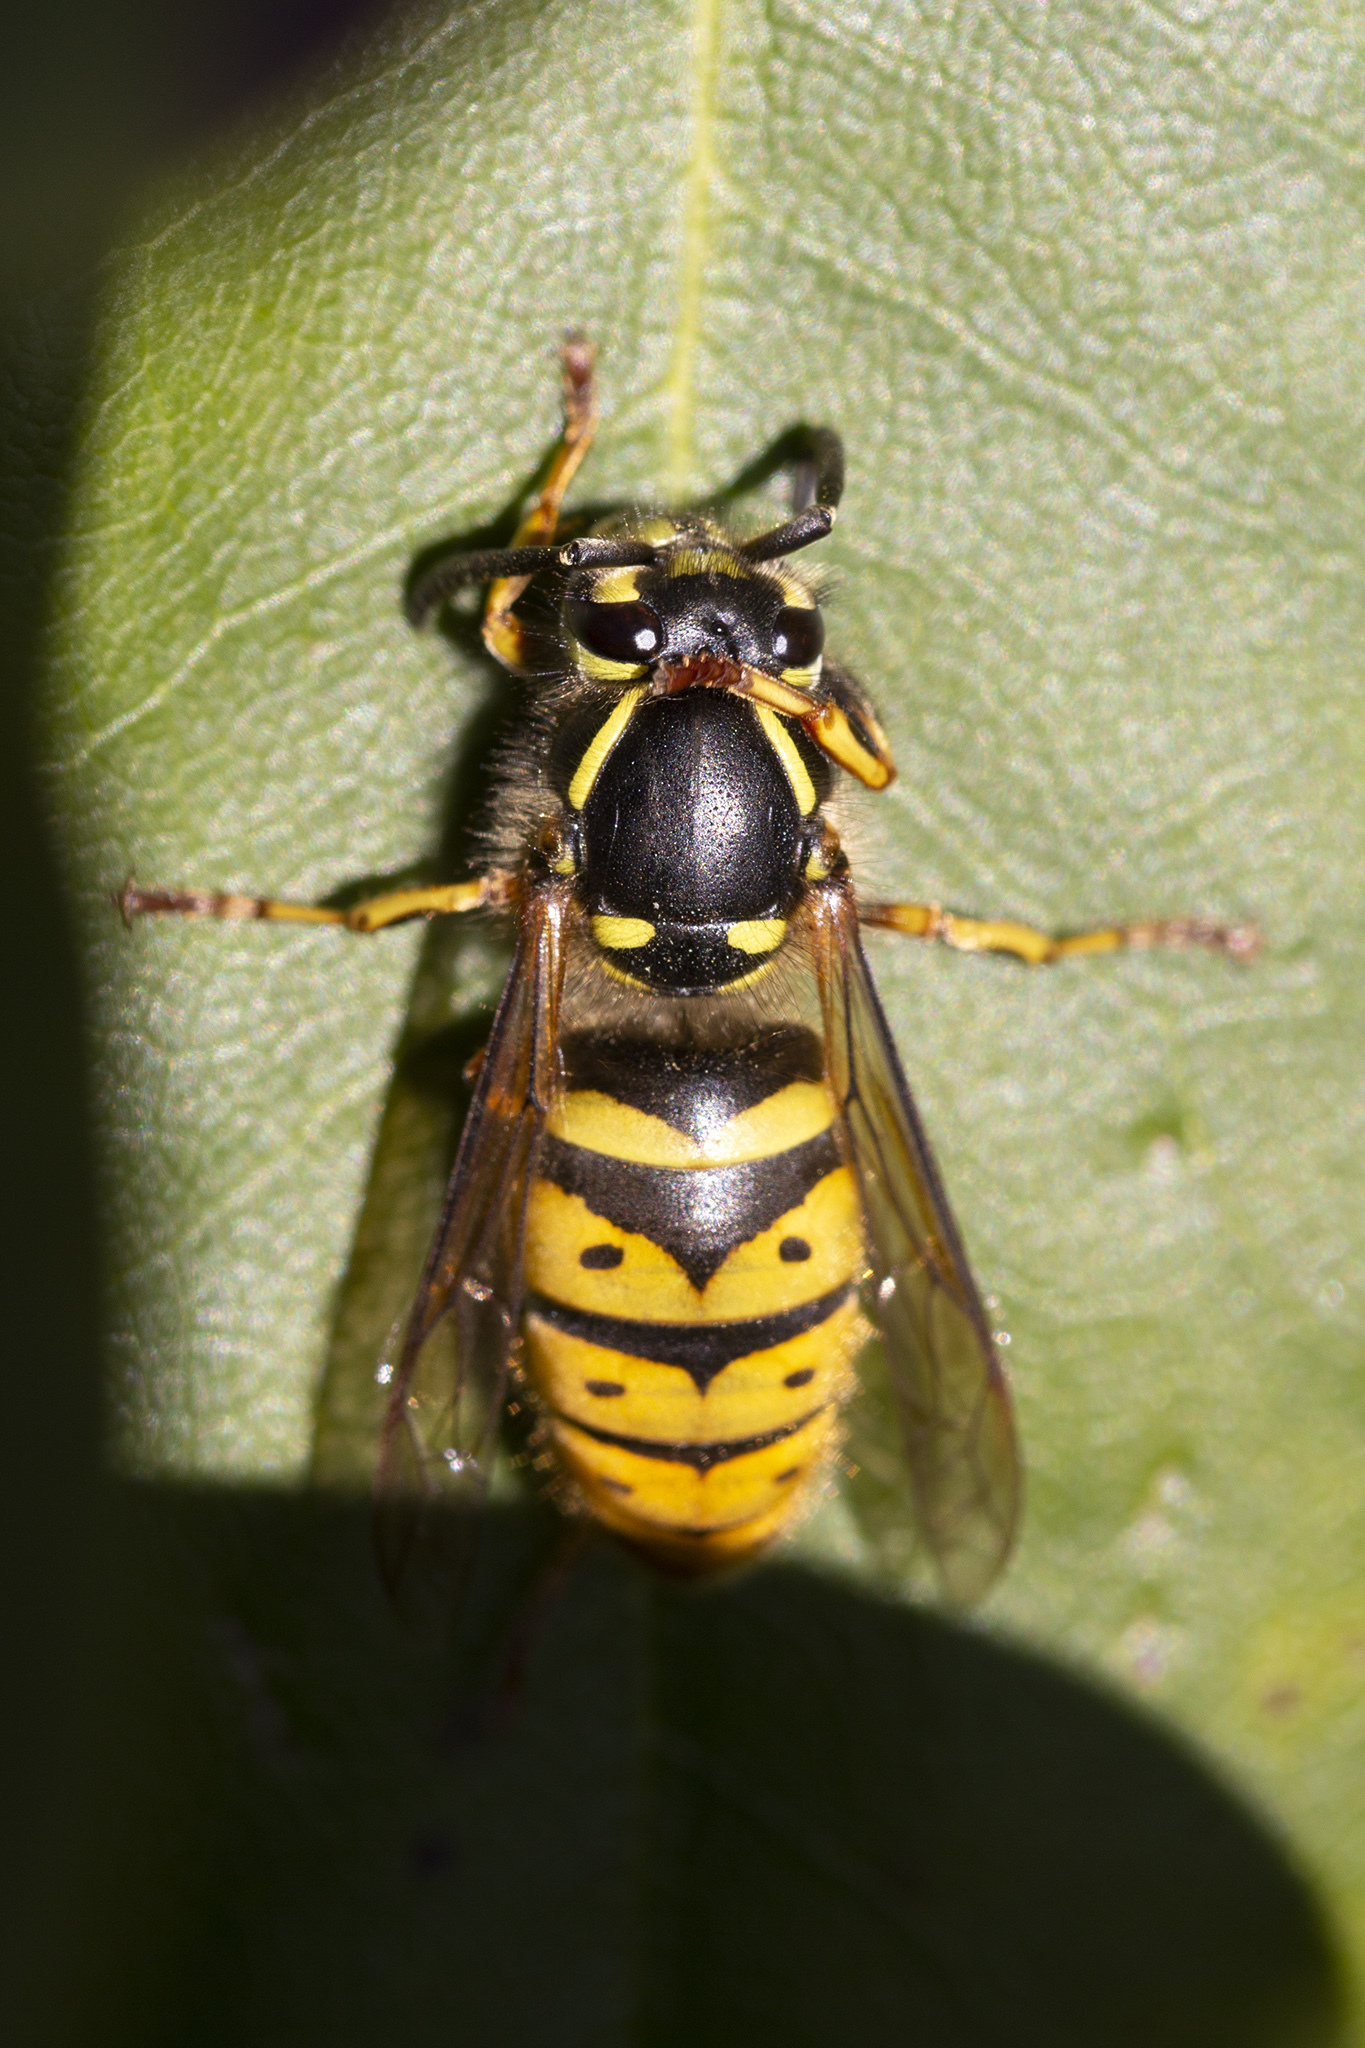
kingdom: Animalia
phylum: Arthropoda
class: Insecta
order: Hymenoptera
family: Vespidae
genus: Vespula
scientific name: Vespula vulgaris
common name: Common wasp
